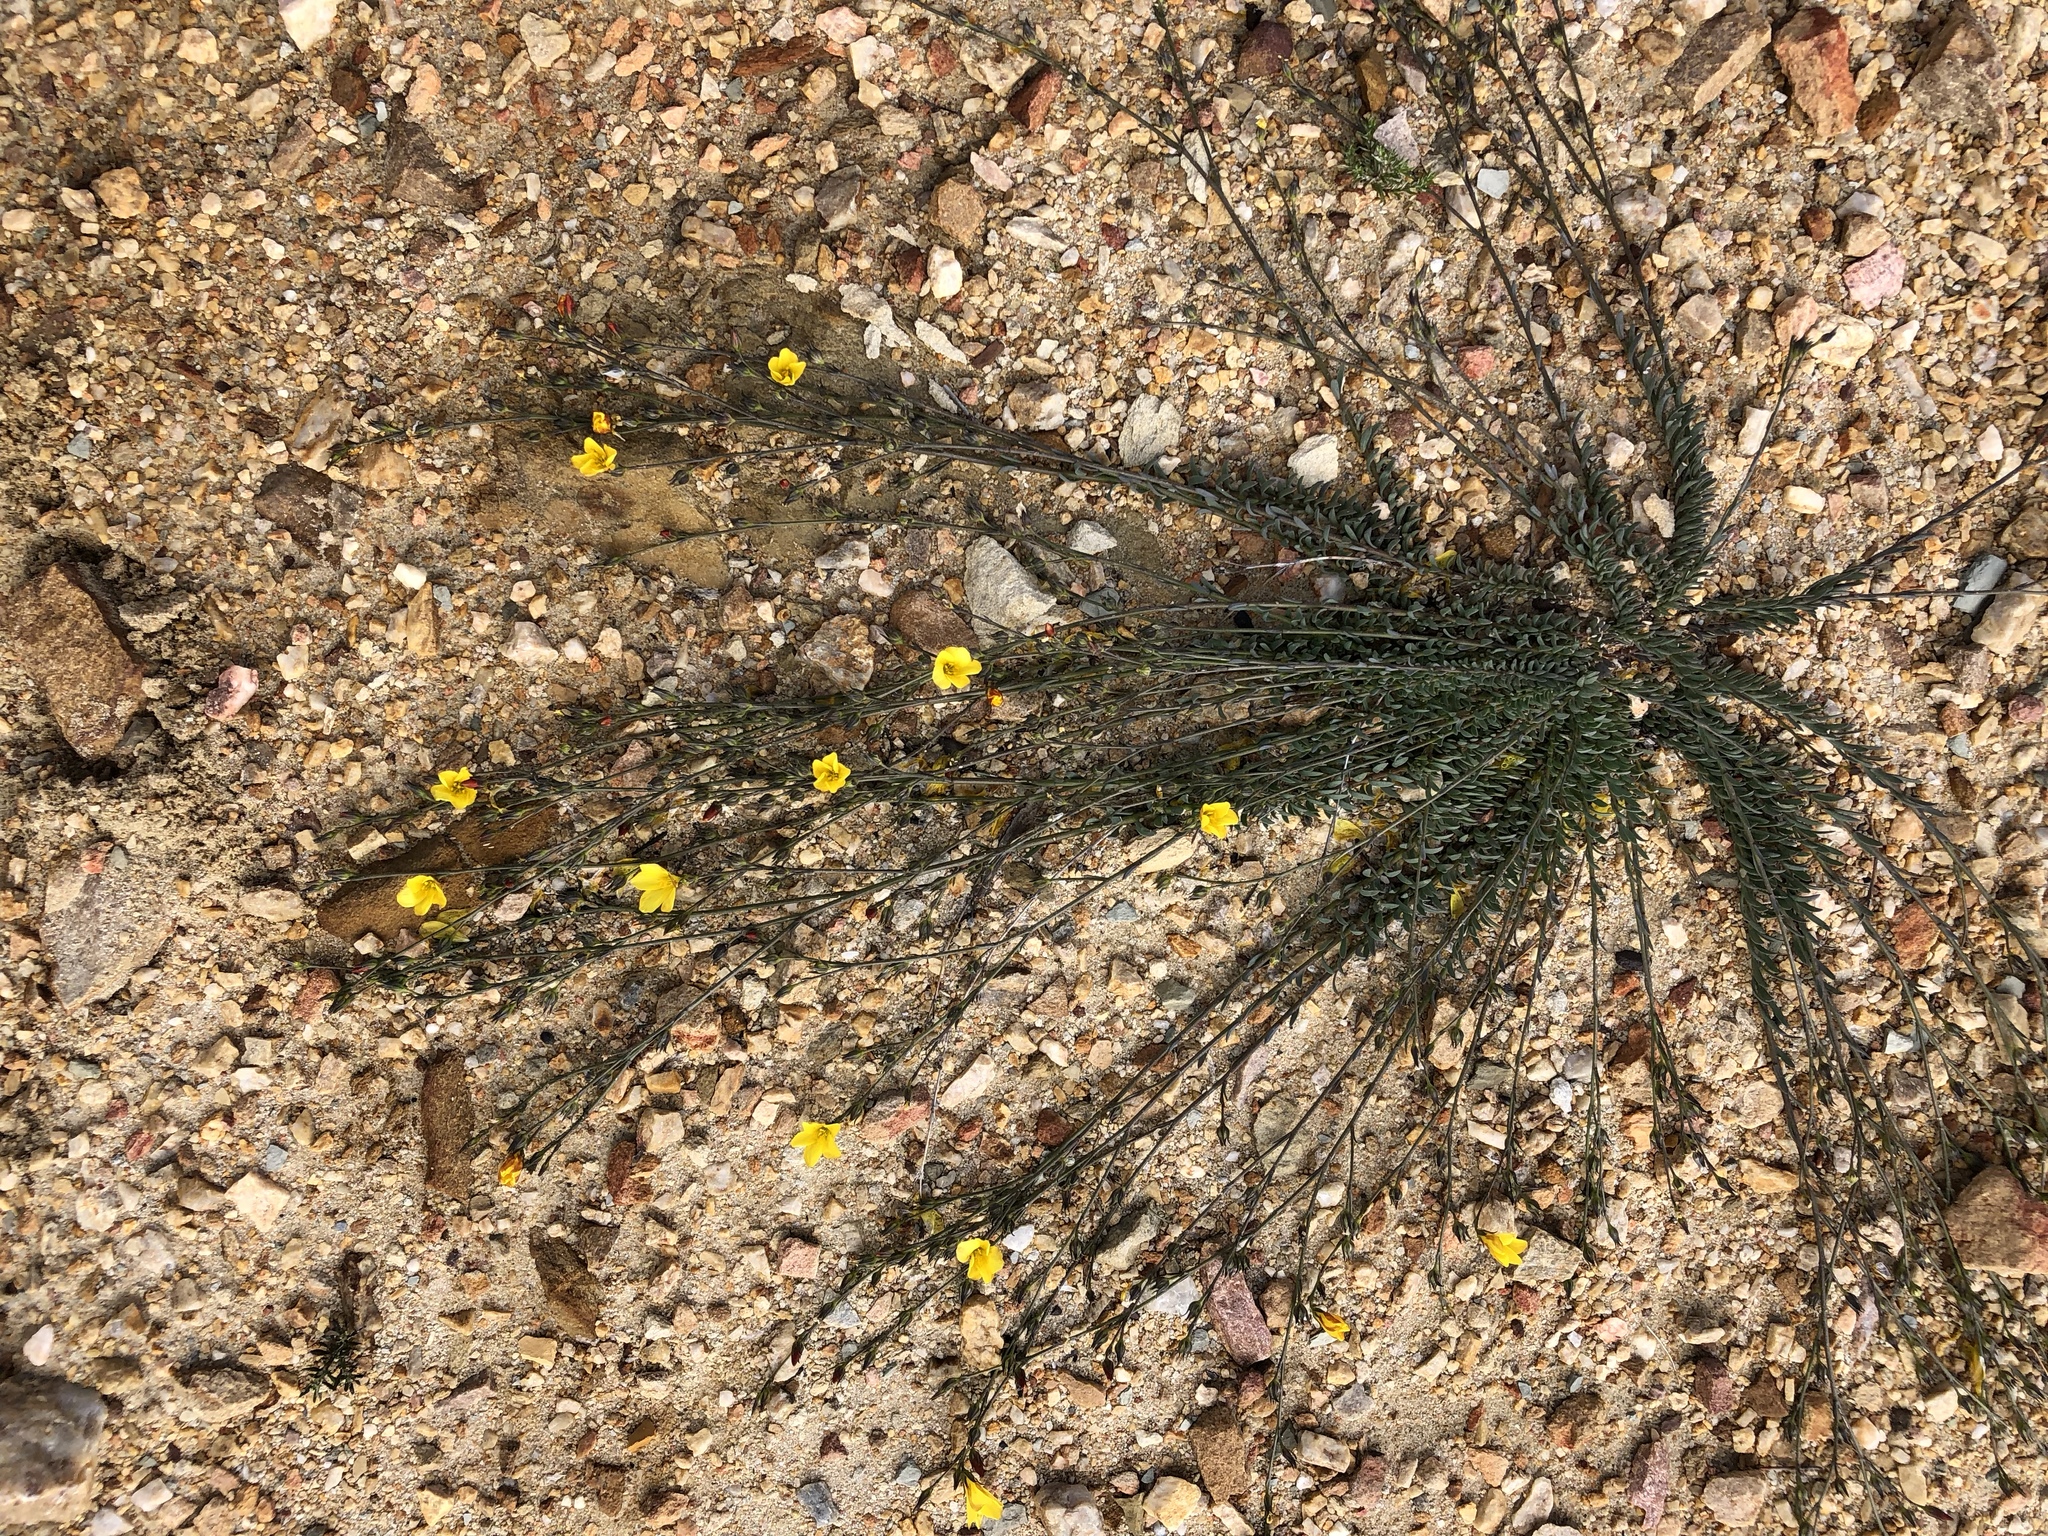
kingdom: Plantae
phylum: Tracheophyta
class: Magnoliopsida
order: Malpighiales
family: Linaceae
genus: Linum
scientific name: Linum africanum
